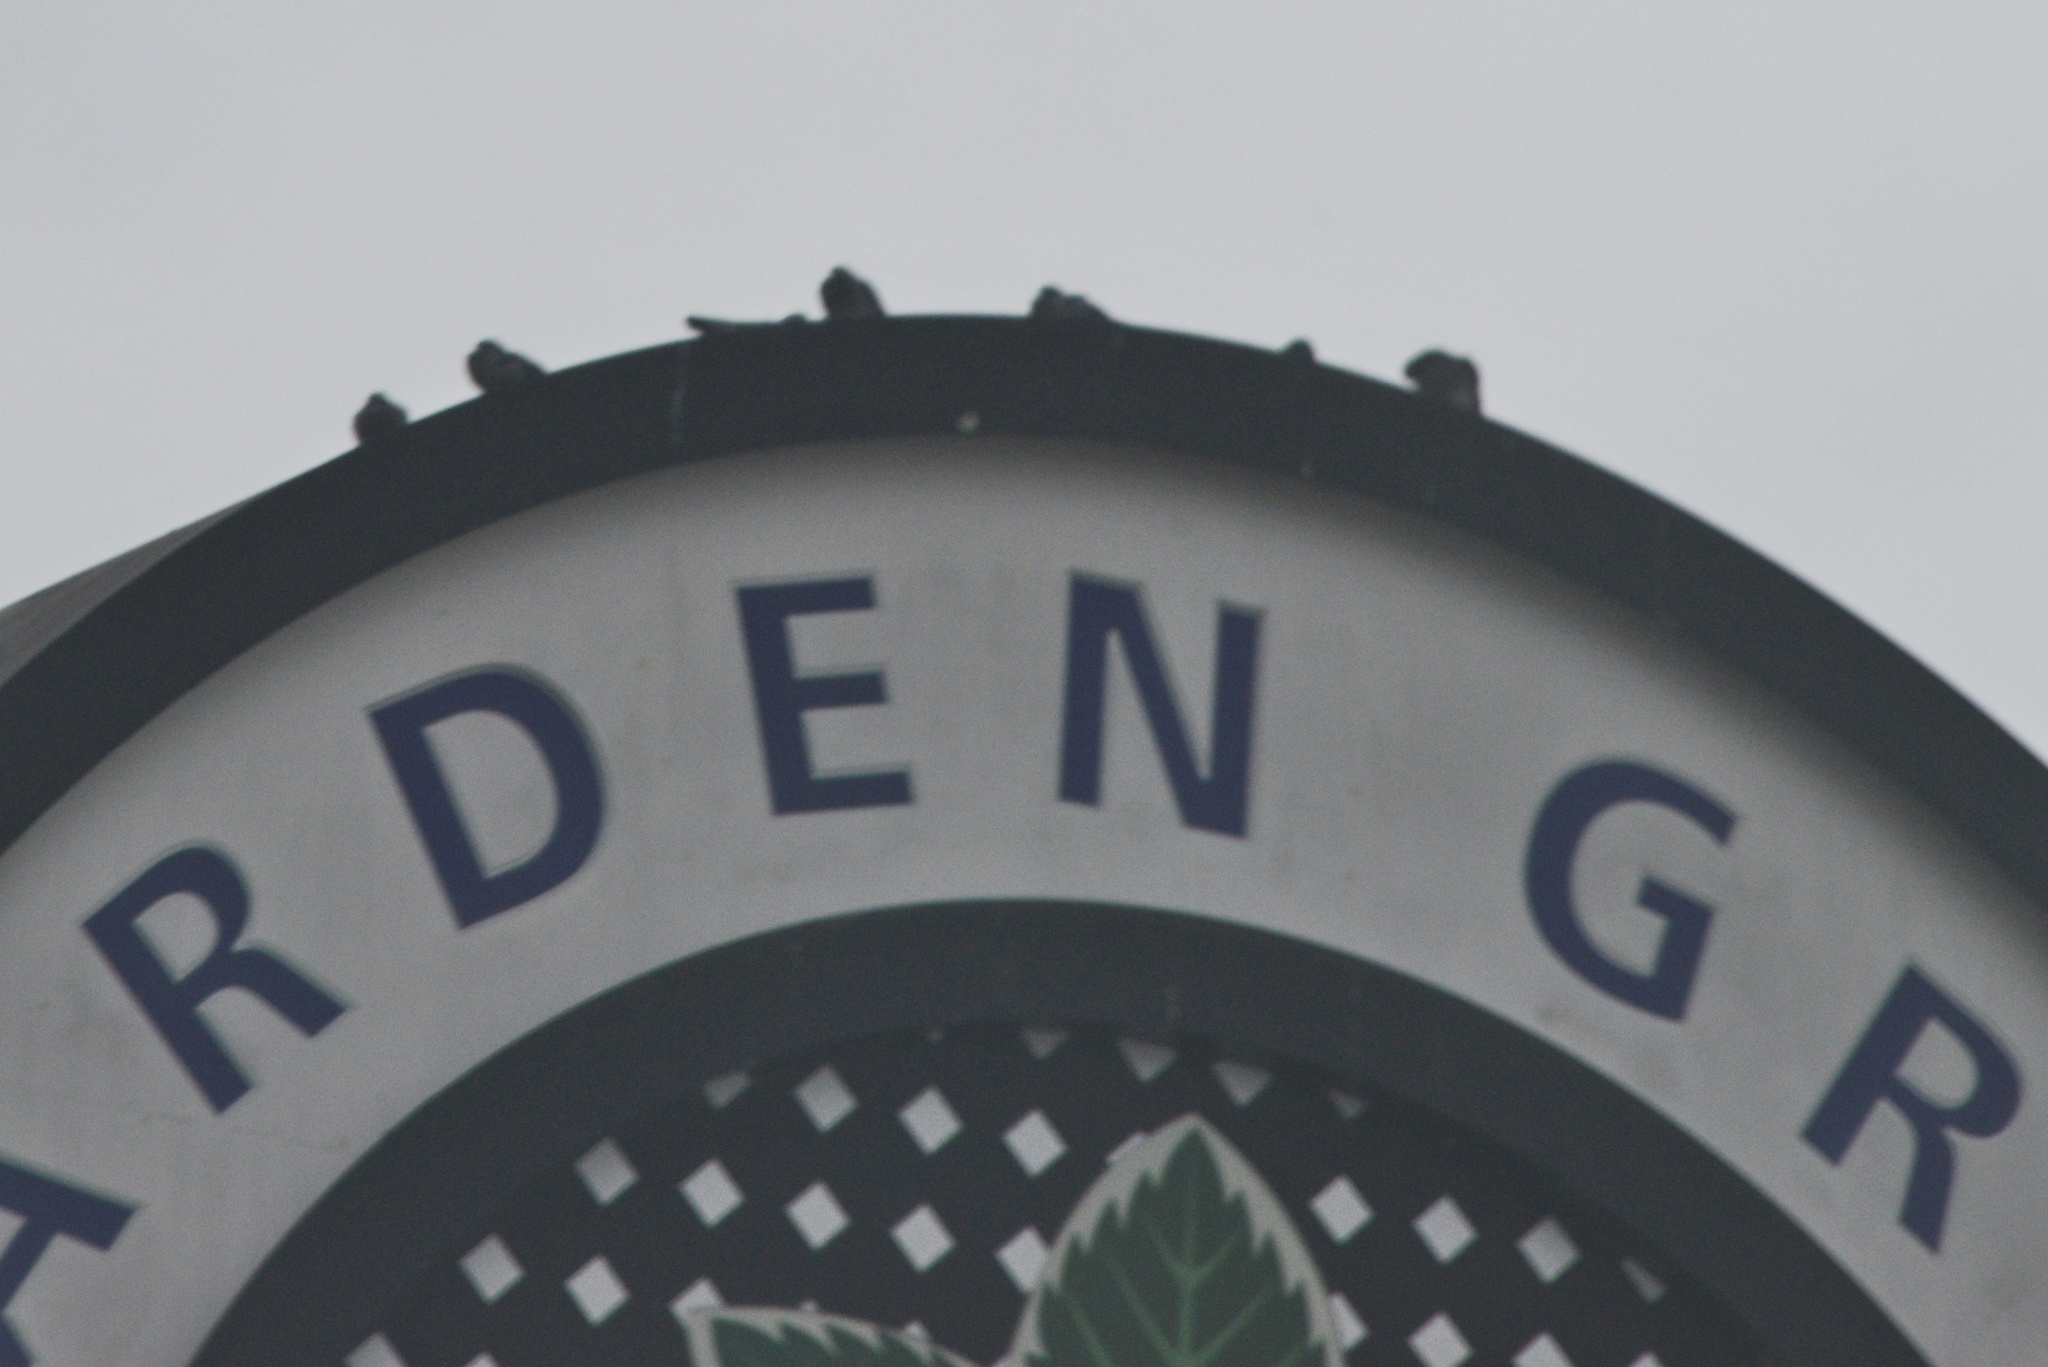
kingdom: Animalia
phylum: Chordata
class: Aves
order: Columbiformes
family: Columbidae
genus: Columba
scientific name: Columba livia
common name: Rock pigeon
